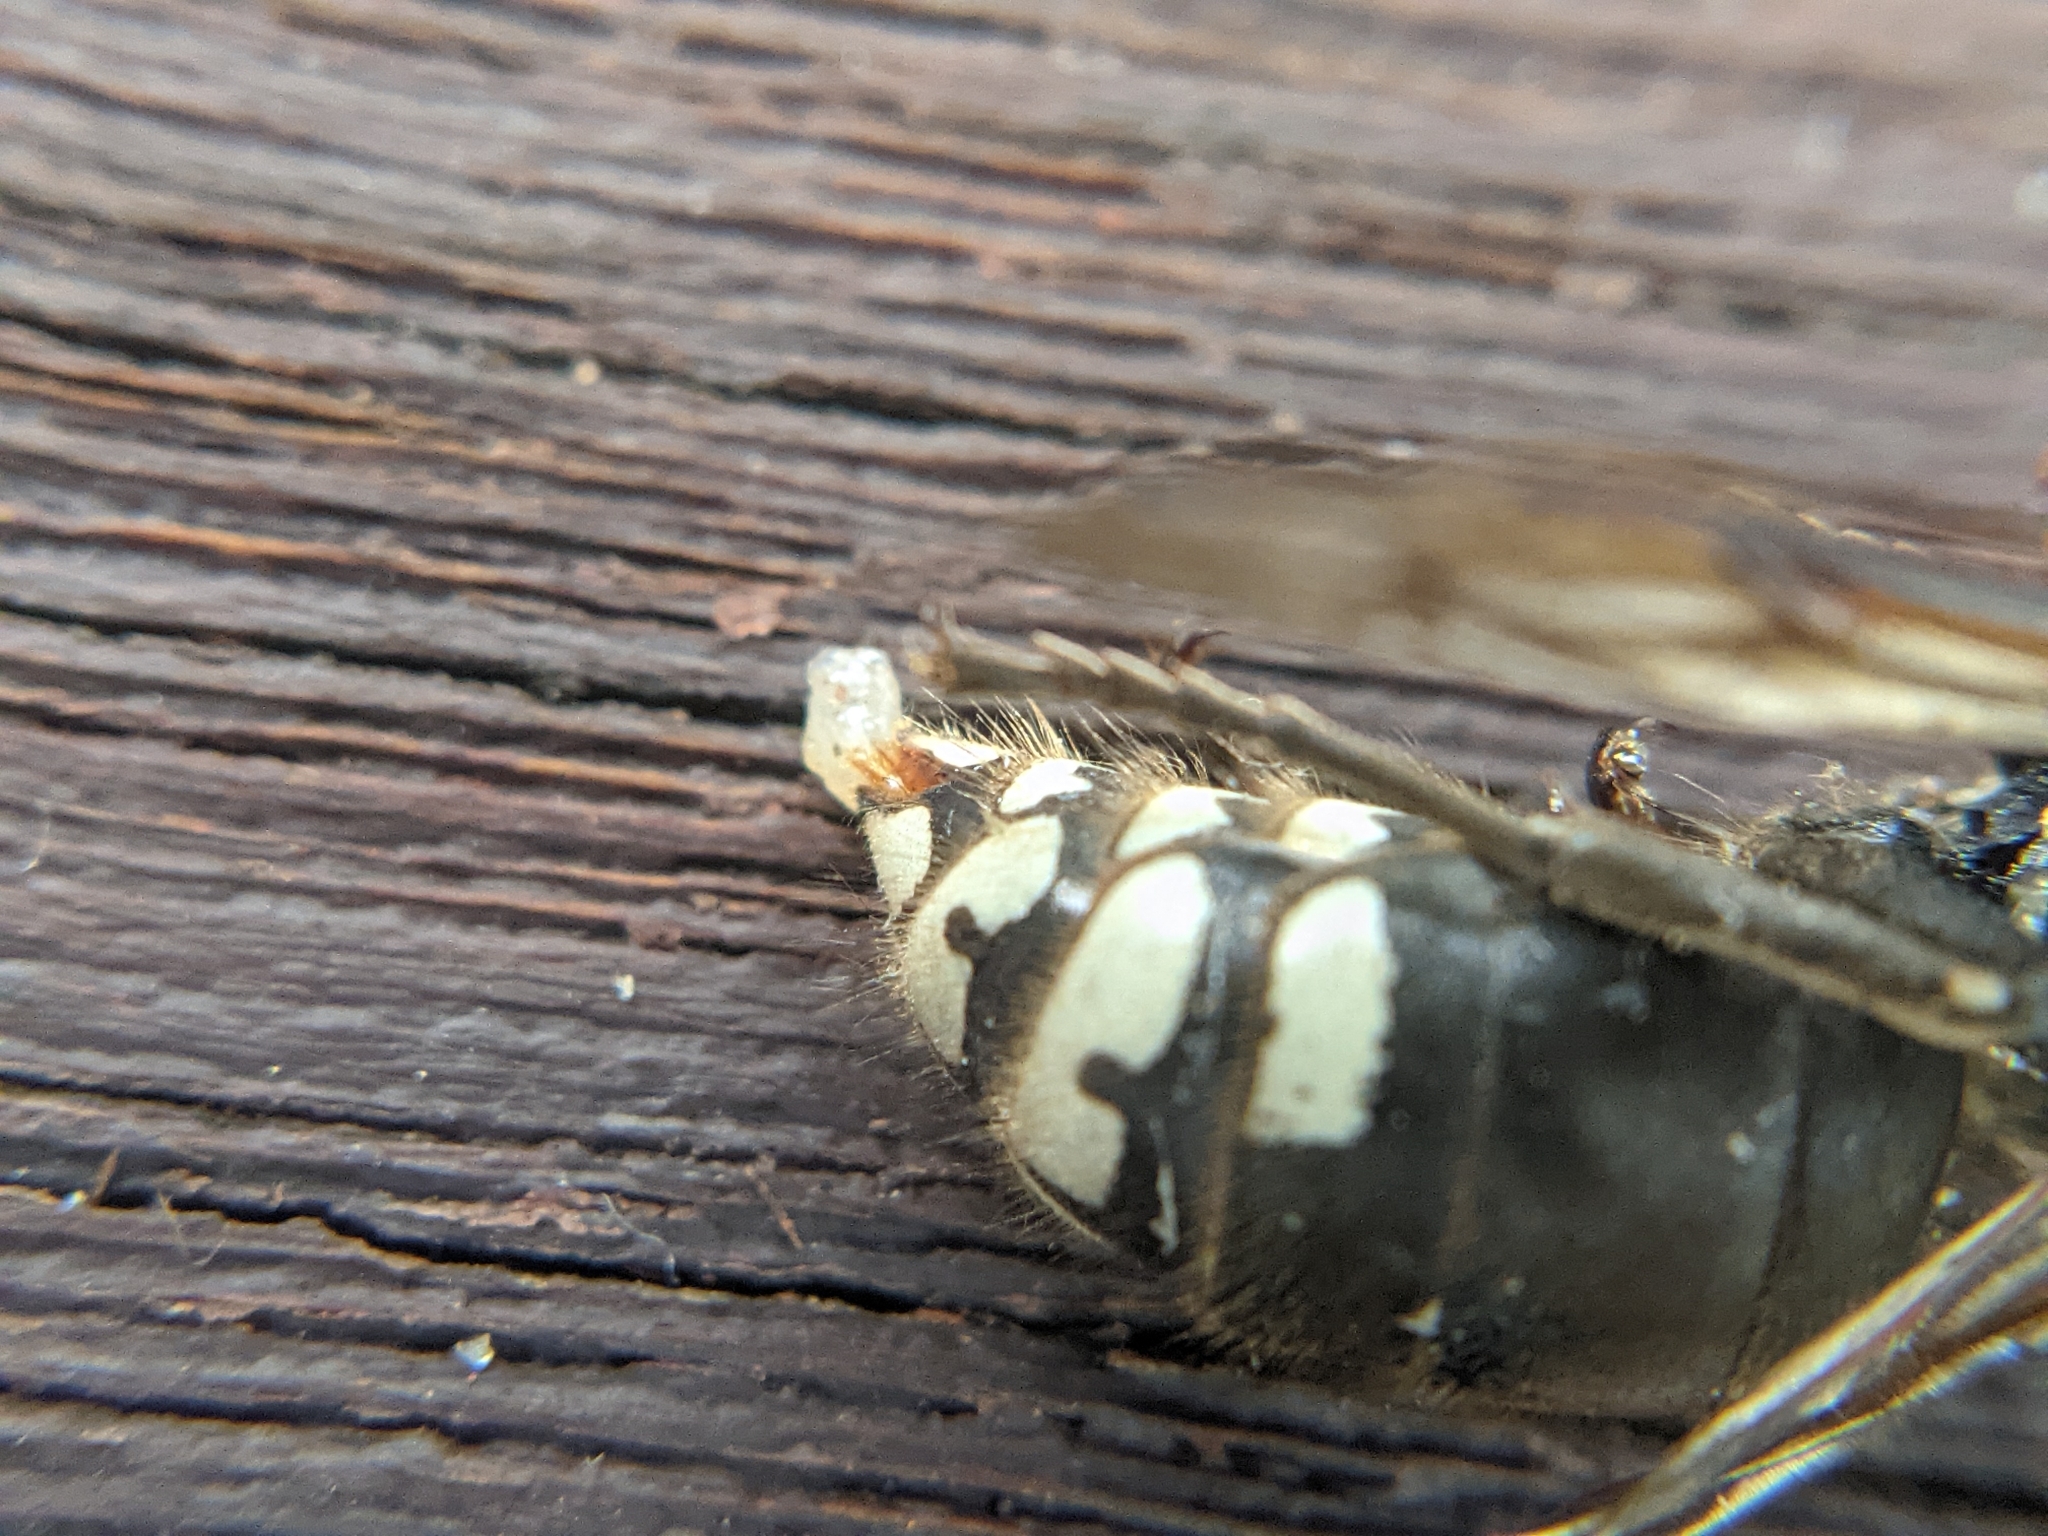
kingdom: Animalia
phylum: Arthropoda
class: Insecta
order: Hymenoptera
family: Vespidae
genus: Dolichovespula
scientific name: Dolichovespula maculata
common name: Bald-faced hornet
